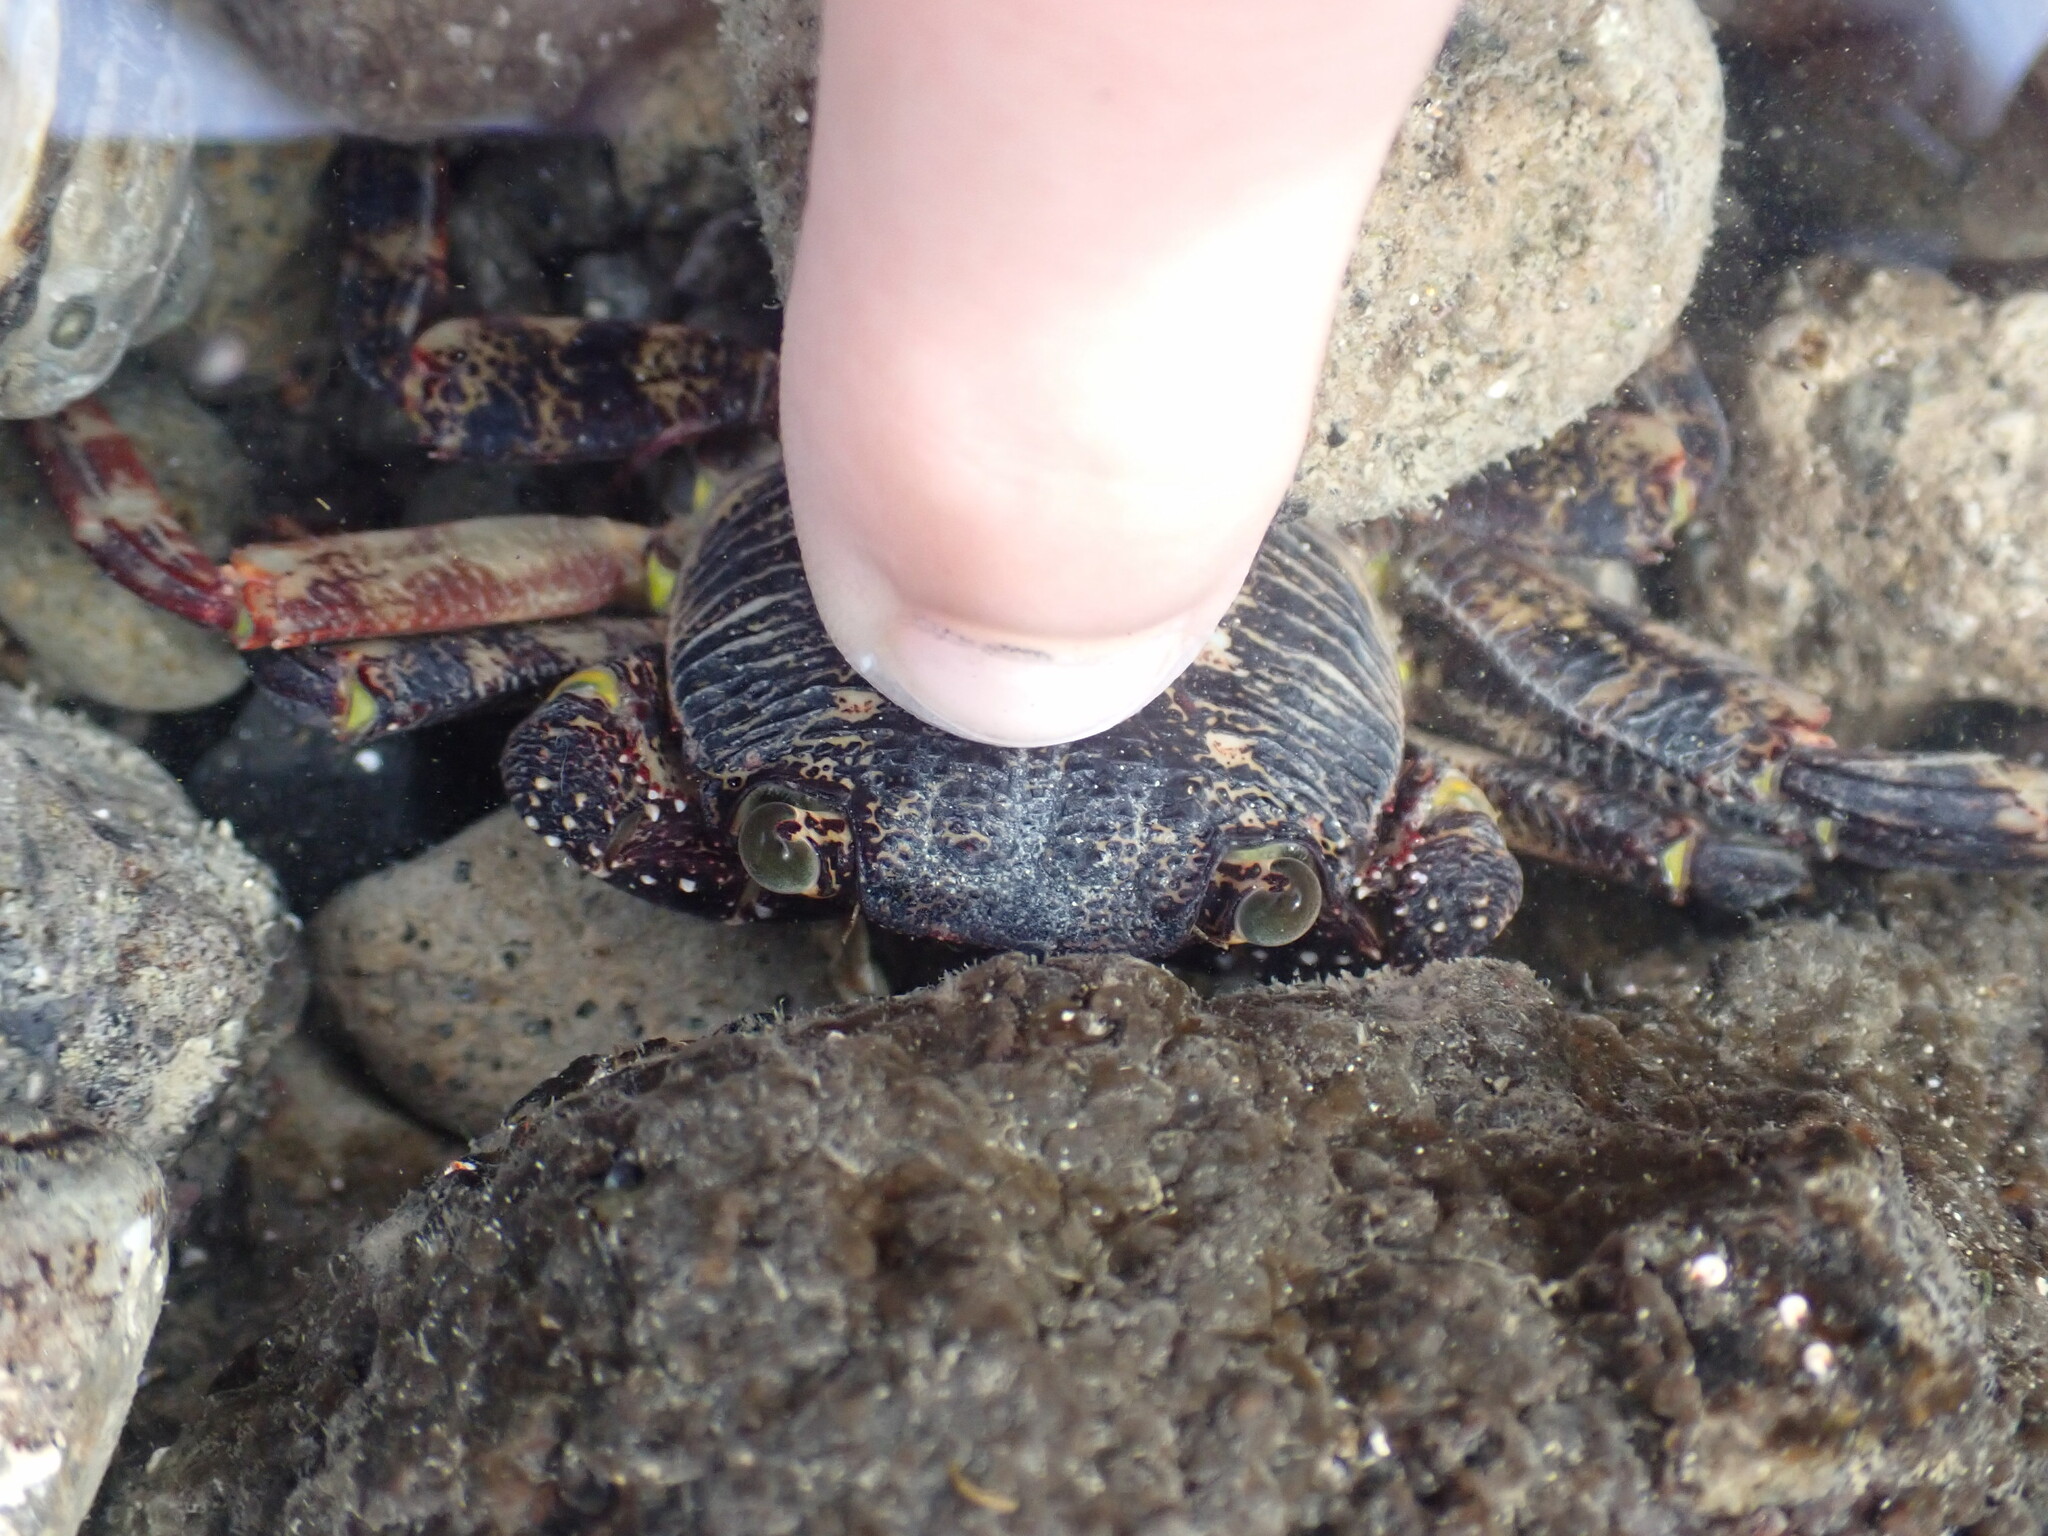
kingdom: Animalia
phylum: Arthropoda
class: Malacostraca
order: Decapoda
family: Grapsidae
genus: Leptograpsus
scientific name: Leptograpsus variegatus
